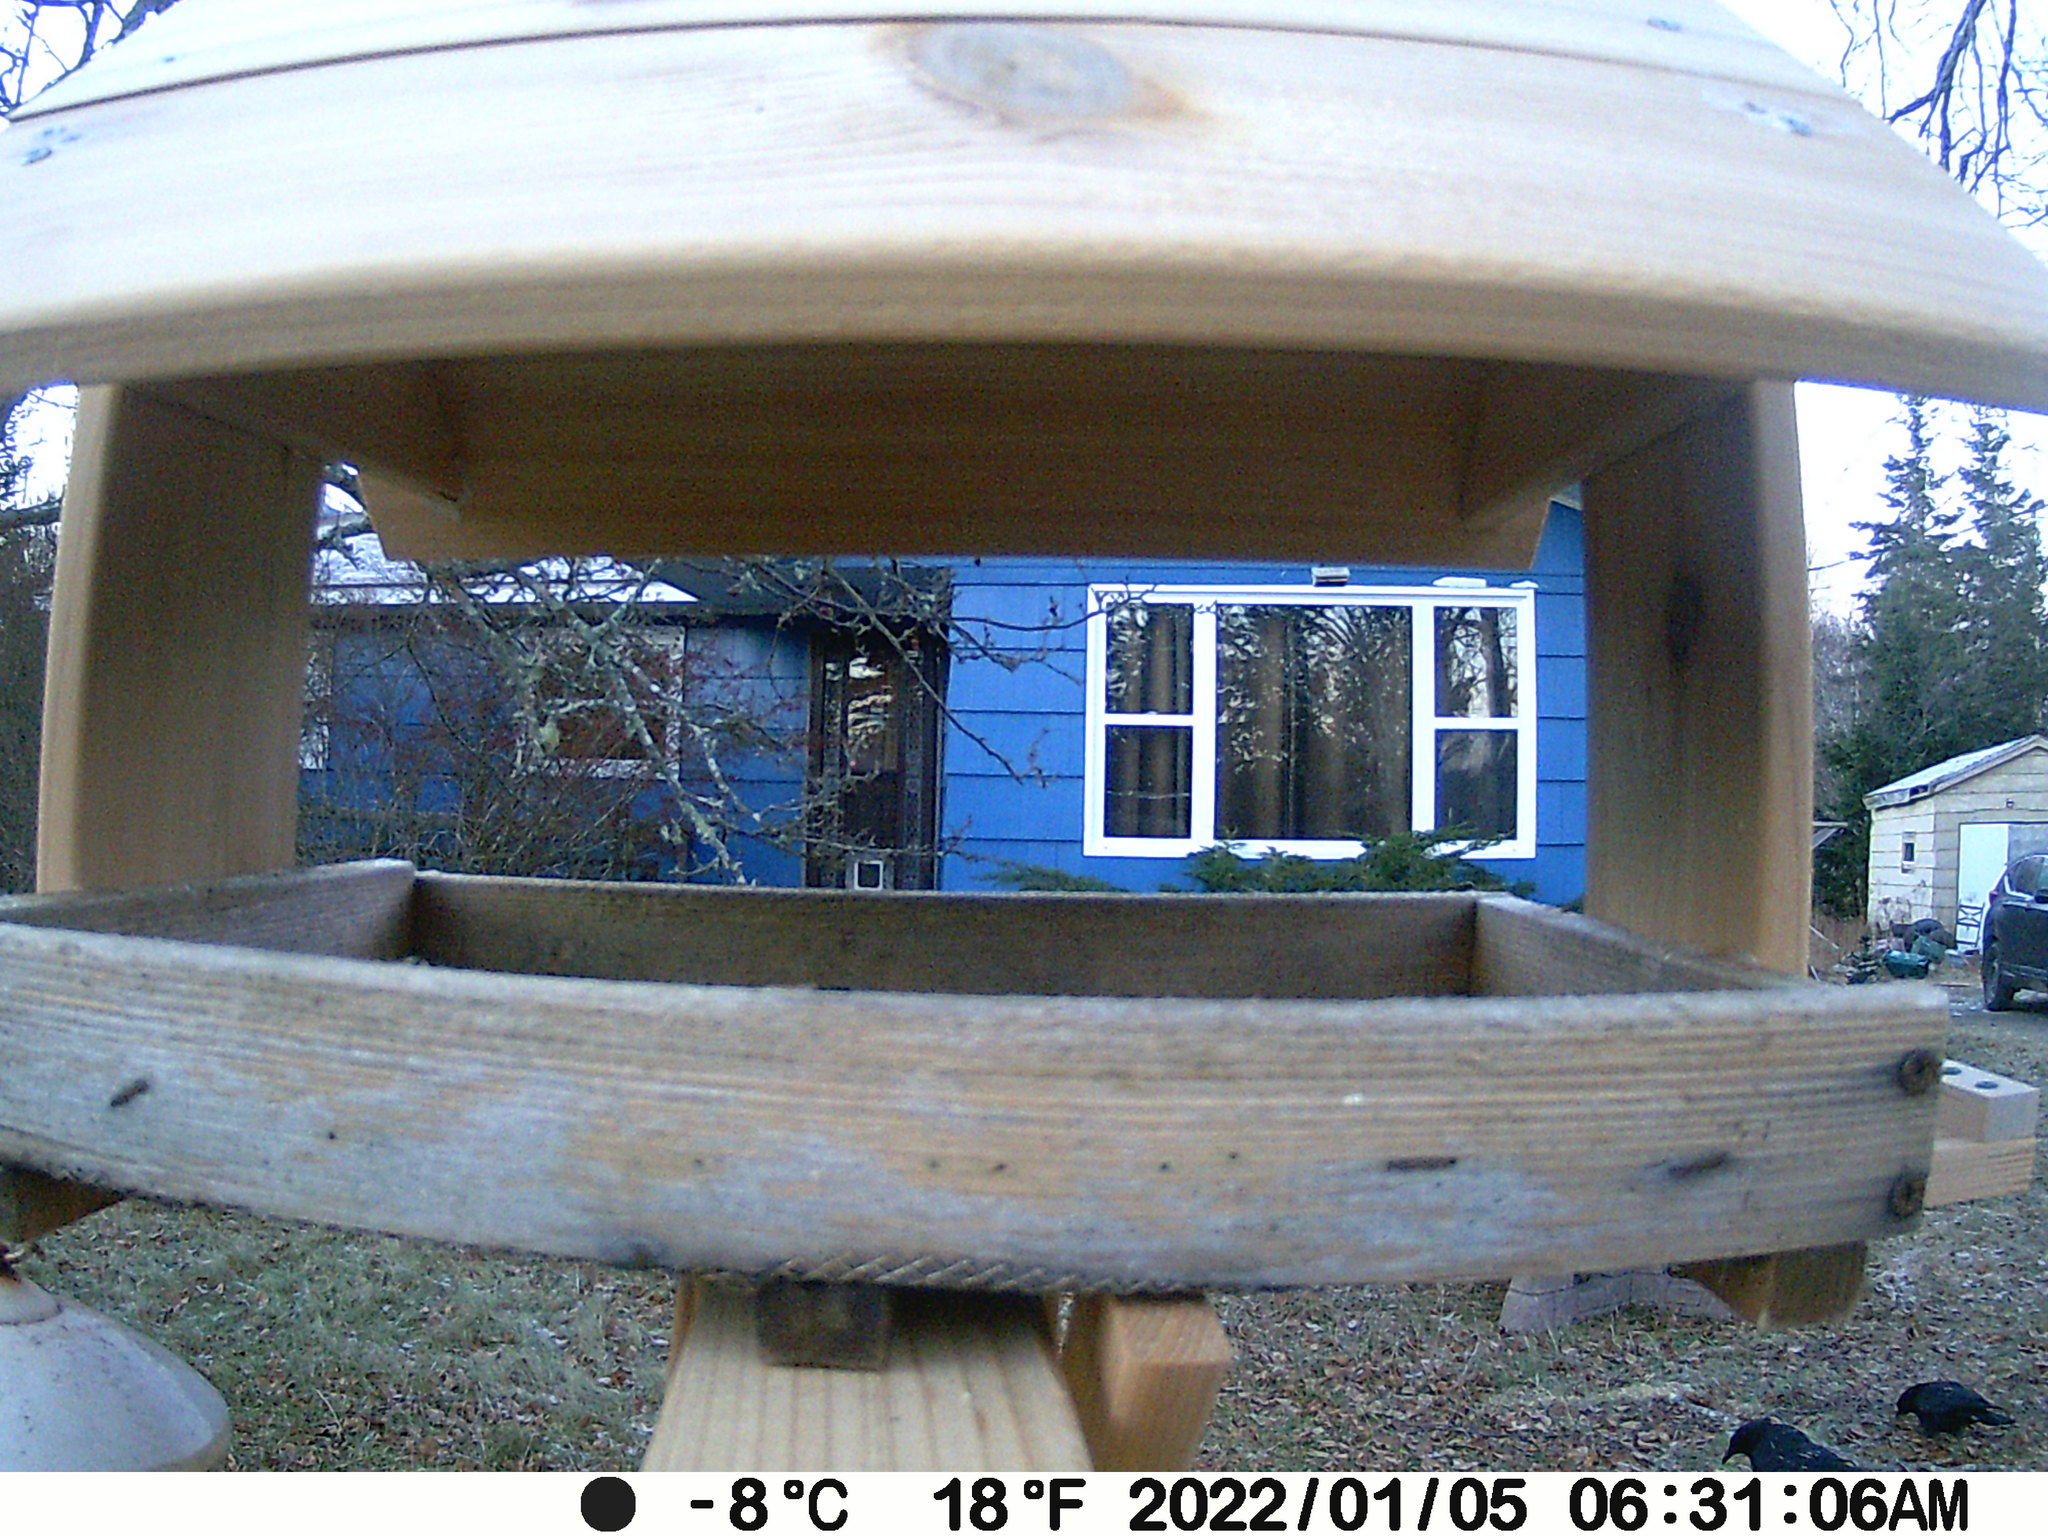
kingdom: Animalia
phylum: Chordata
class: Aves
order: Passeriformes
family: Corvidae
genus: Corvus
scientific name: Corvus brachyrhynchos
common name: American crow
